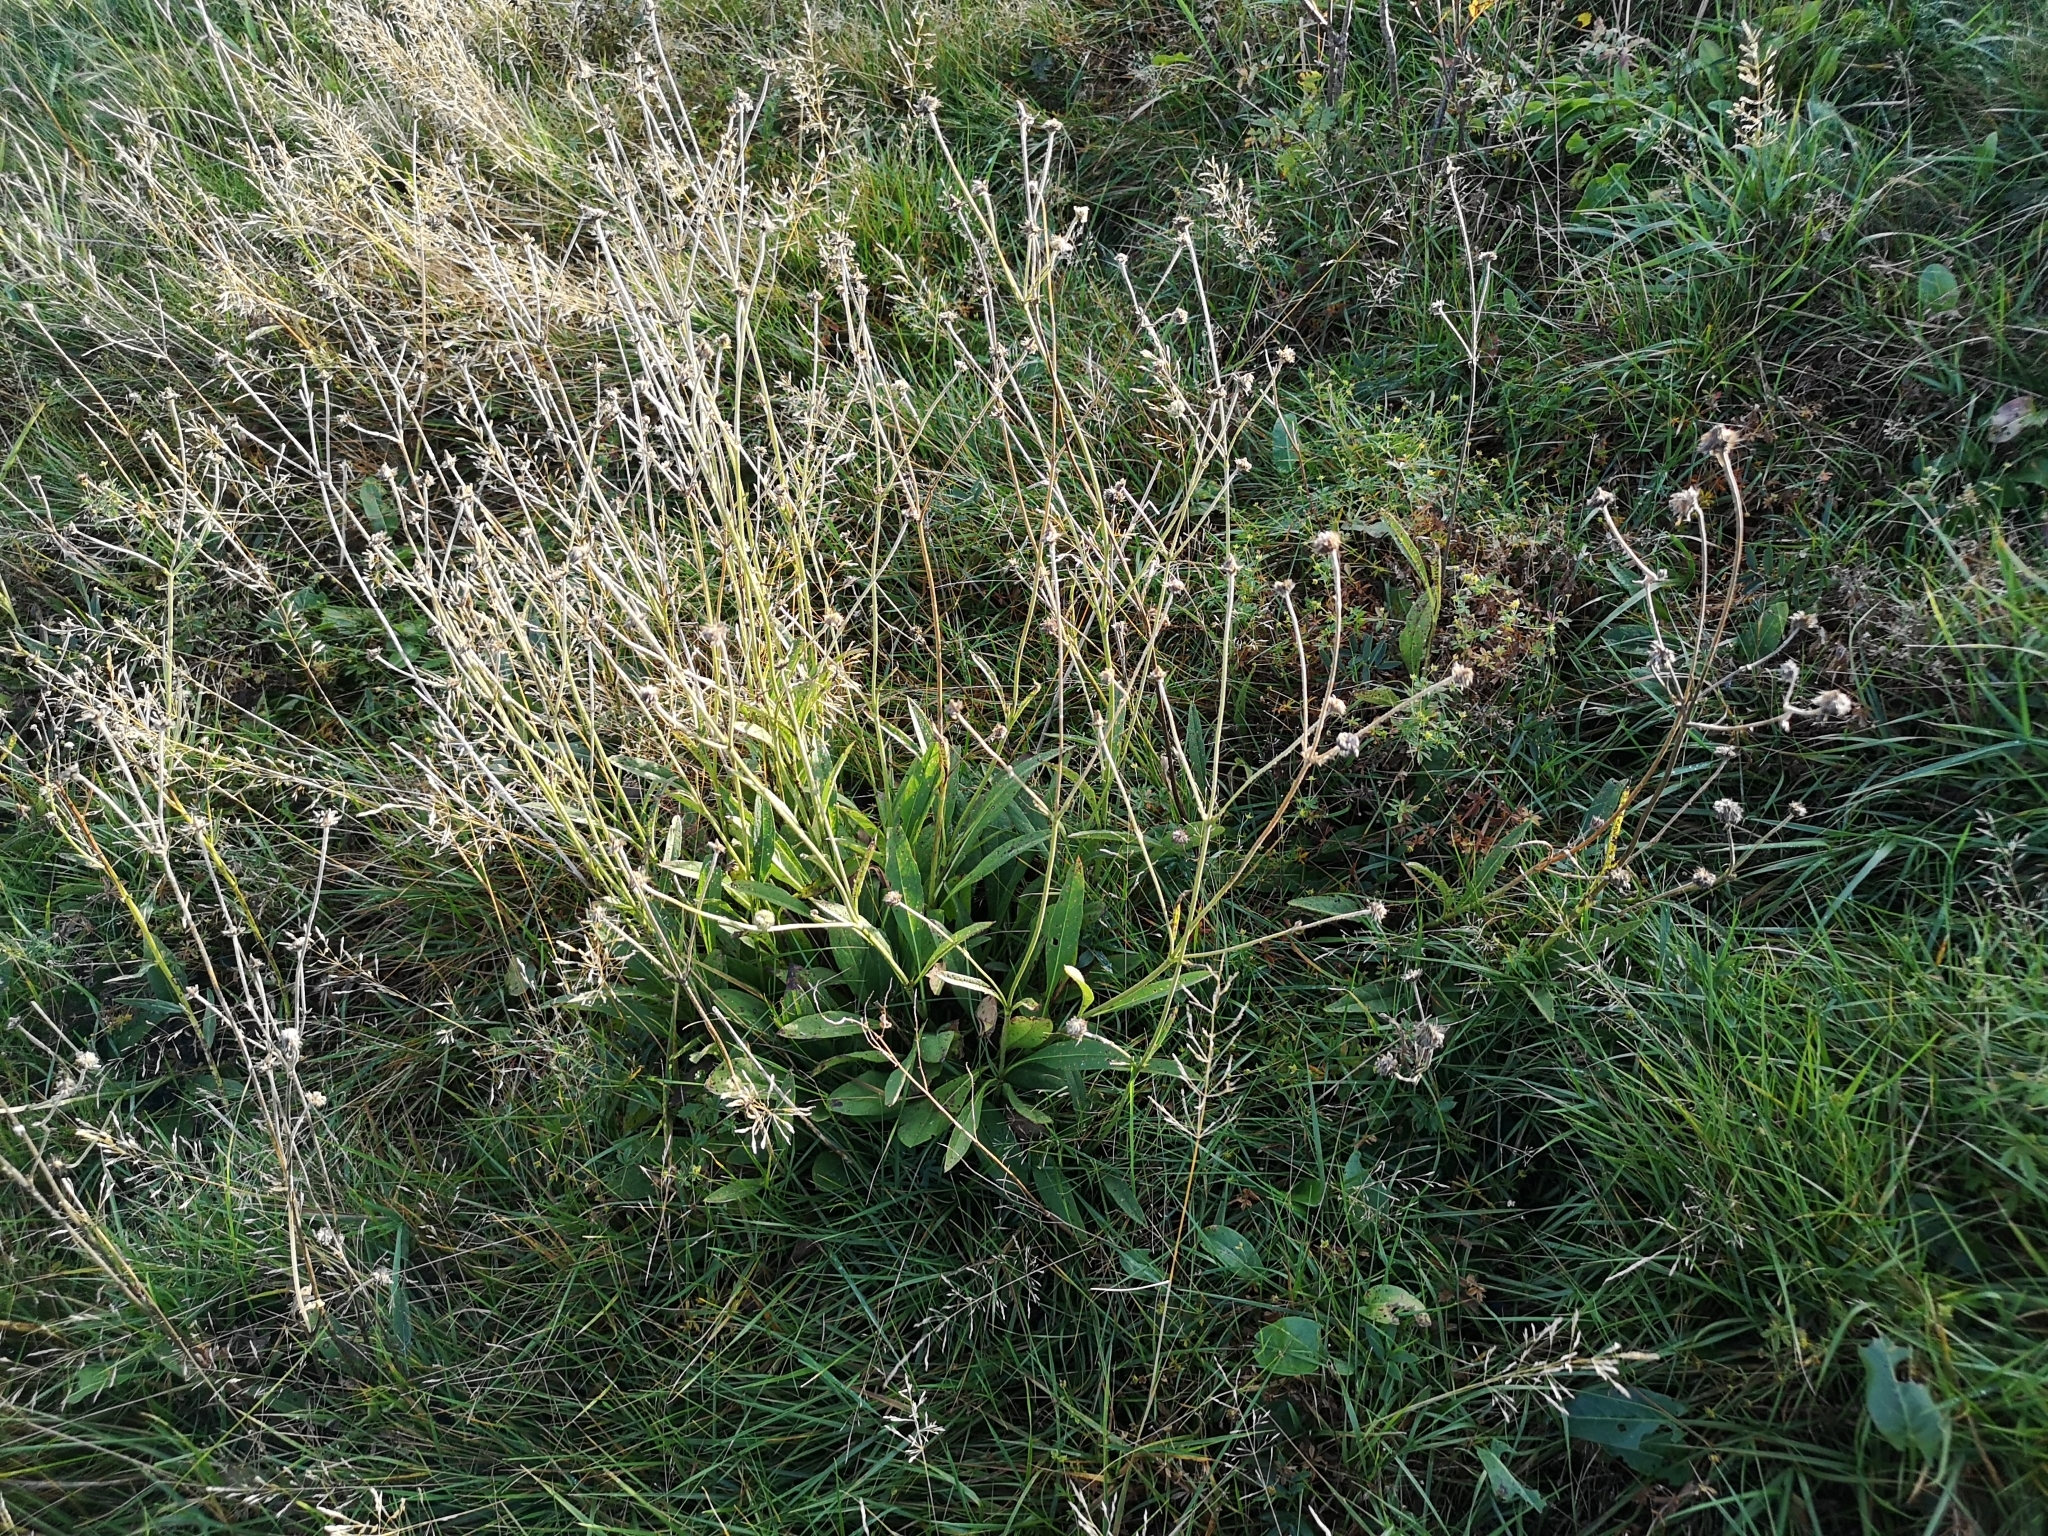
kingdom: Plantae
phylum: Tracheophyta
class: Magnoliopsida
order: Dipsacales
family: Caprifoliaceae
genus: Succisa
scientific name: Succisa pratensis
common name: Devil's-bit
